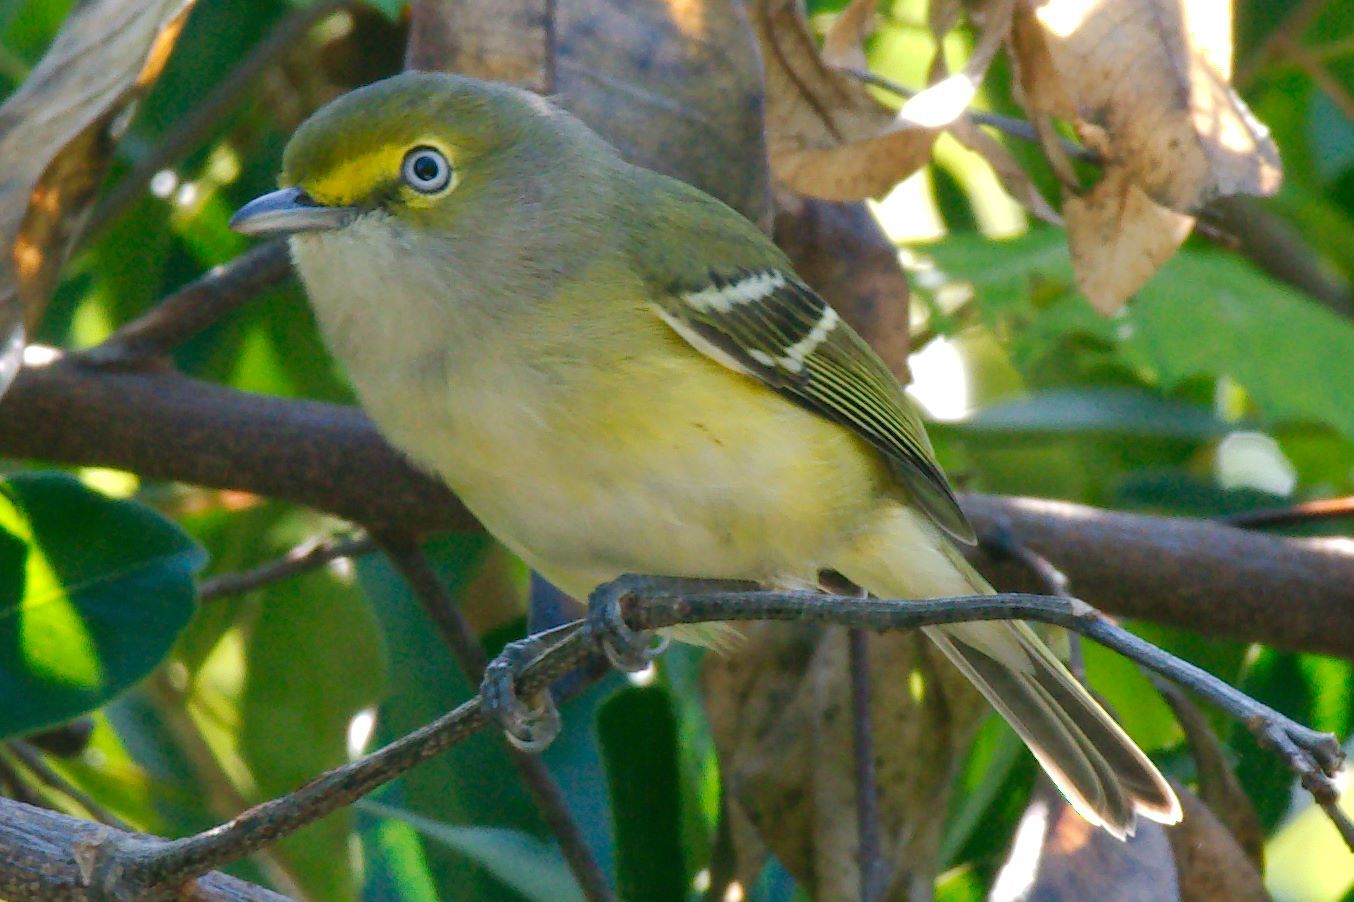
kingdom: Animalia
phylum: Chordata
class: Aves
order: Passeriformes
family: Vireonidae
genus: Vireo
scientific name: Vireo griseus
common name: White-eyed vireo
